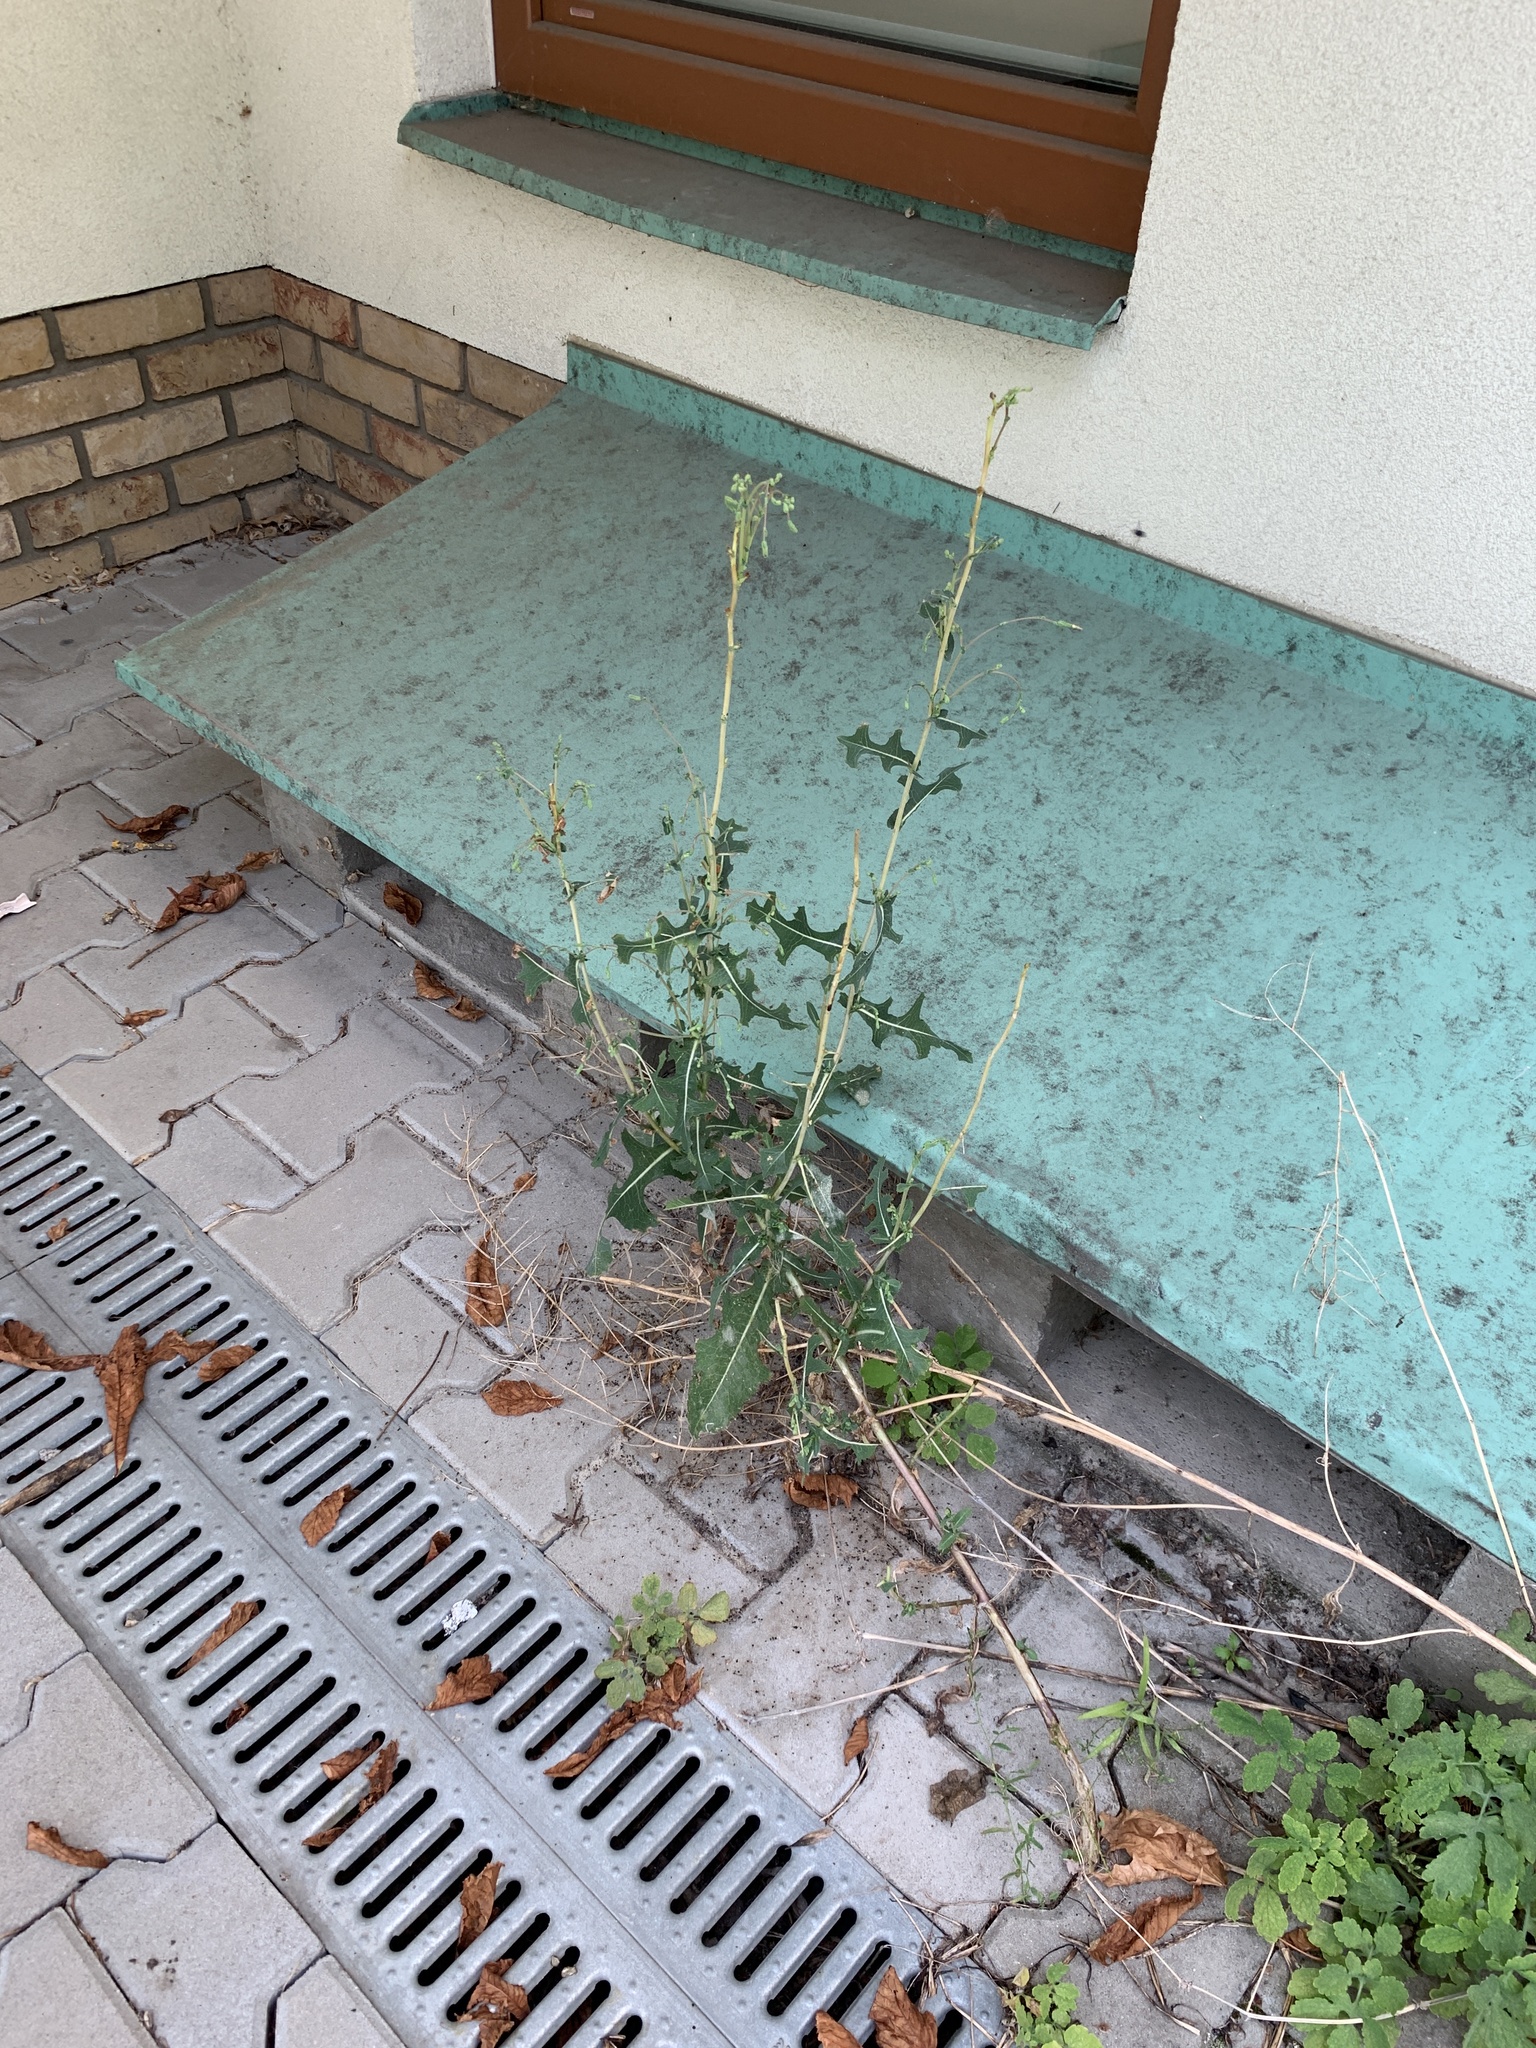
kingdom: Plantae
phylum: Tracheophyta
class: Magnoliopsida
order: Asterales
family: Asteraceae
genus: Lactuca
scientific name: Lactuca serriola
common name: Prickly lettuce
